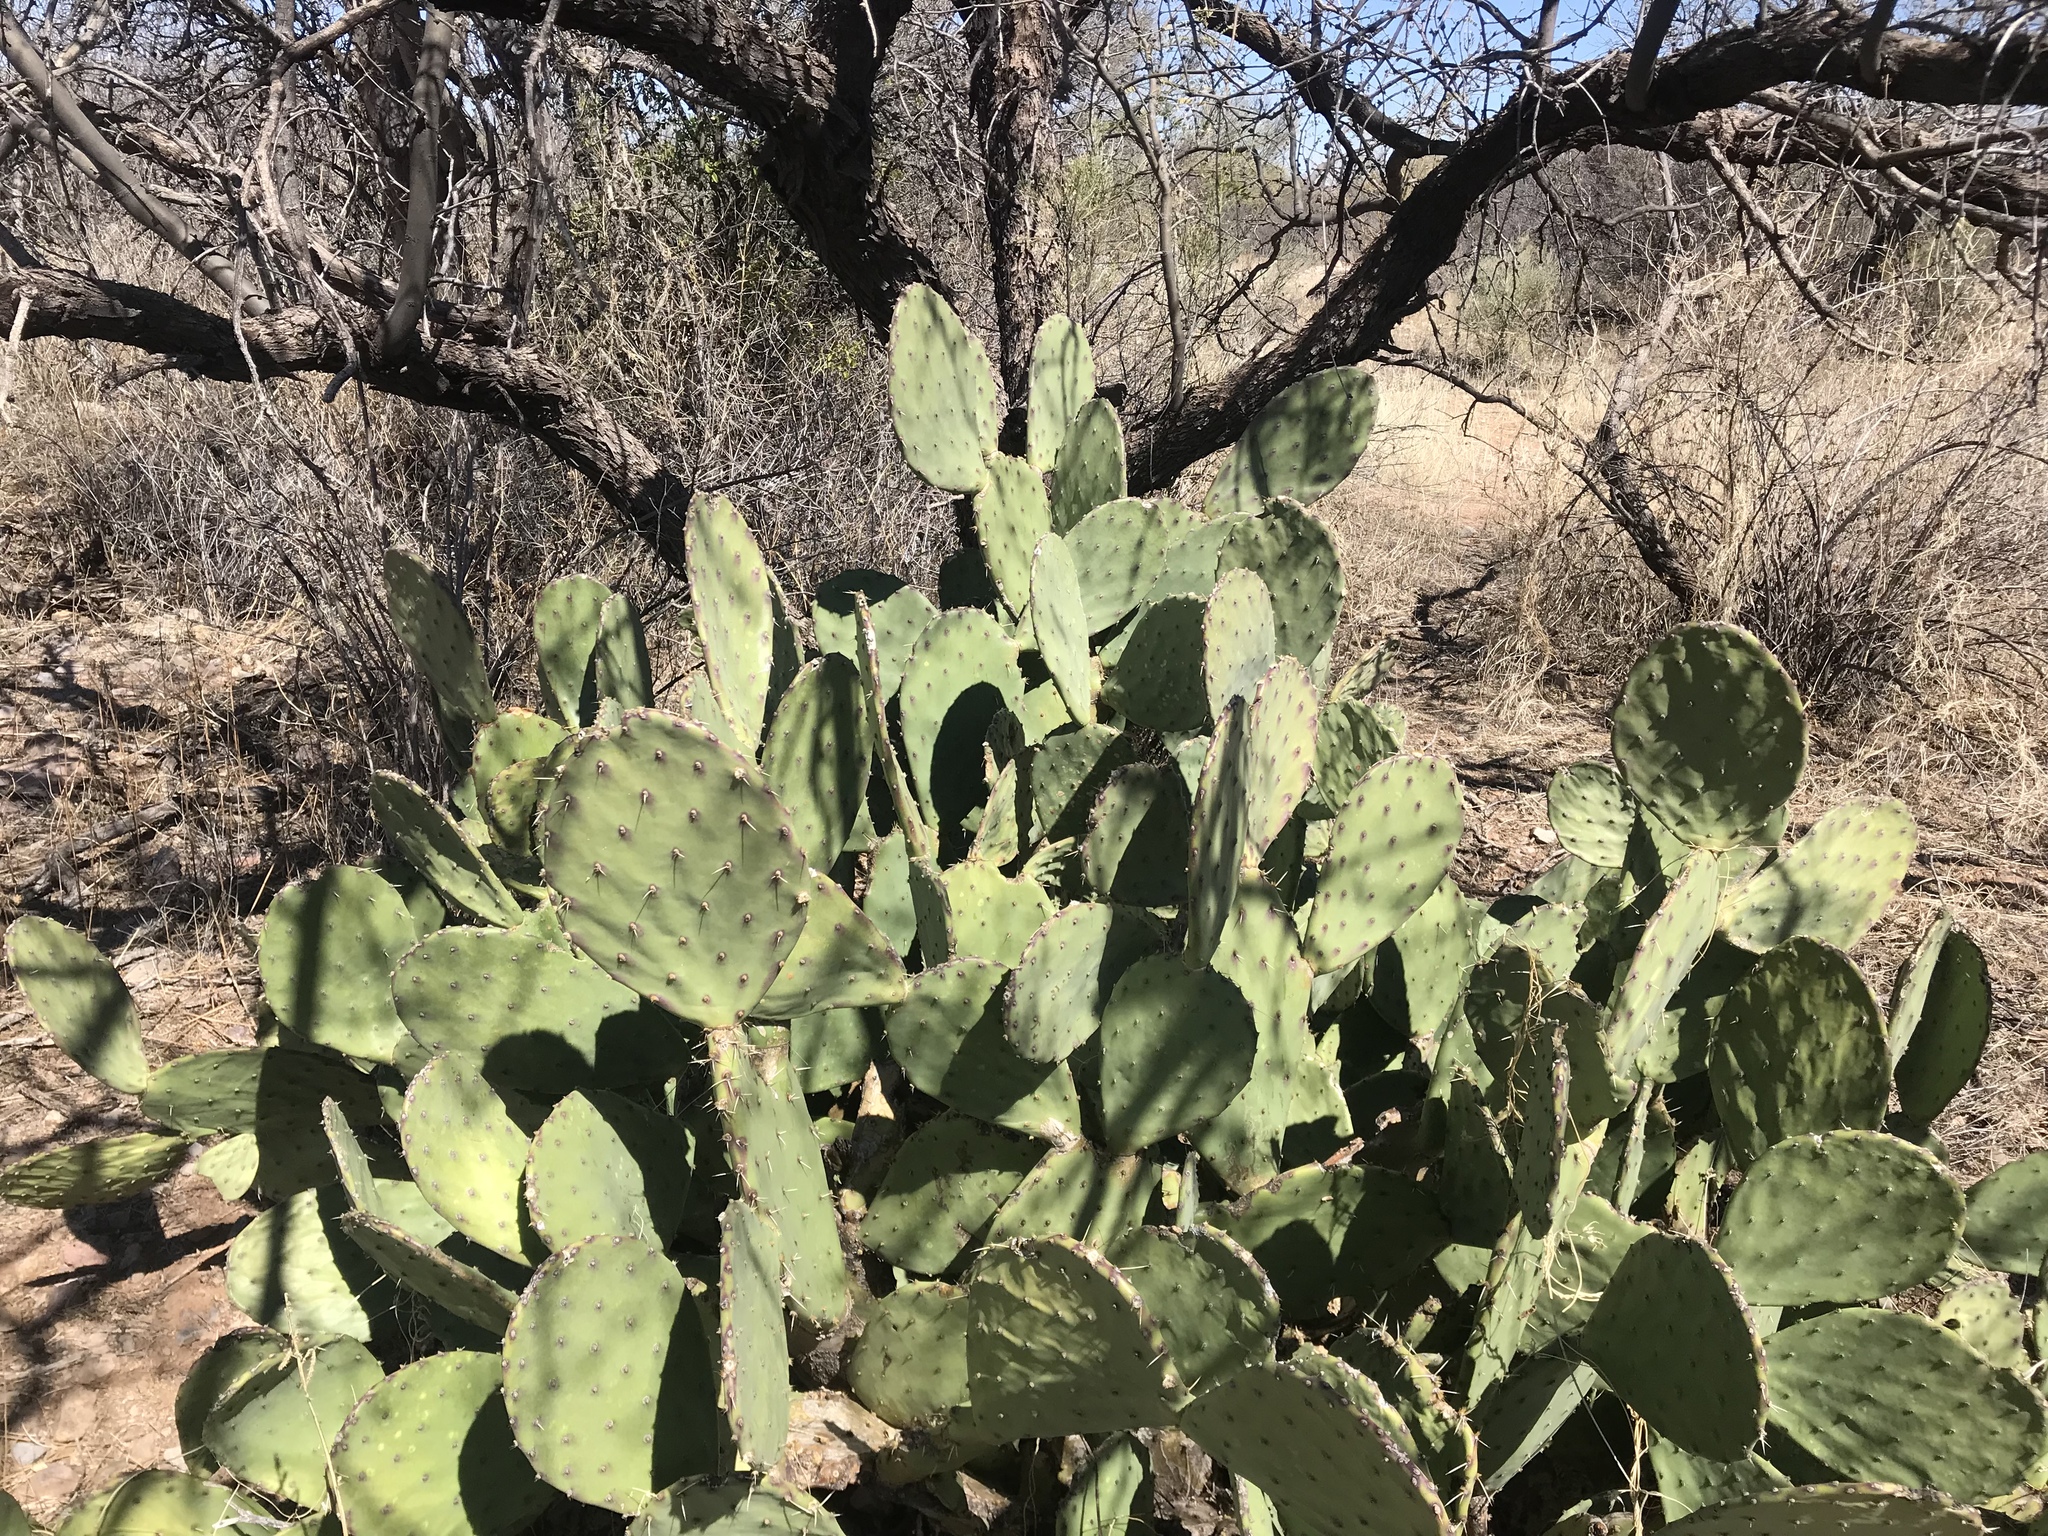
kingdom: Plantae
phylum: Tracheophyta
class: Magnoliopsida
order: Caryophyllales
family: Cactaceae
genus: Opuntia
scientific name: Opuntia chlorotica
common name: Dollar-joint prickly-pear
